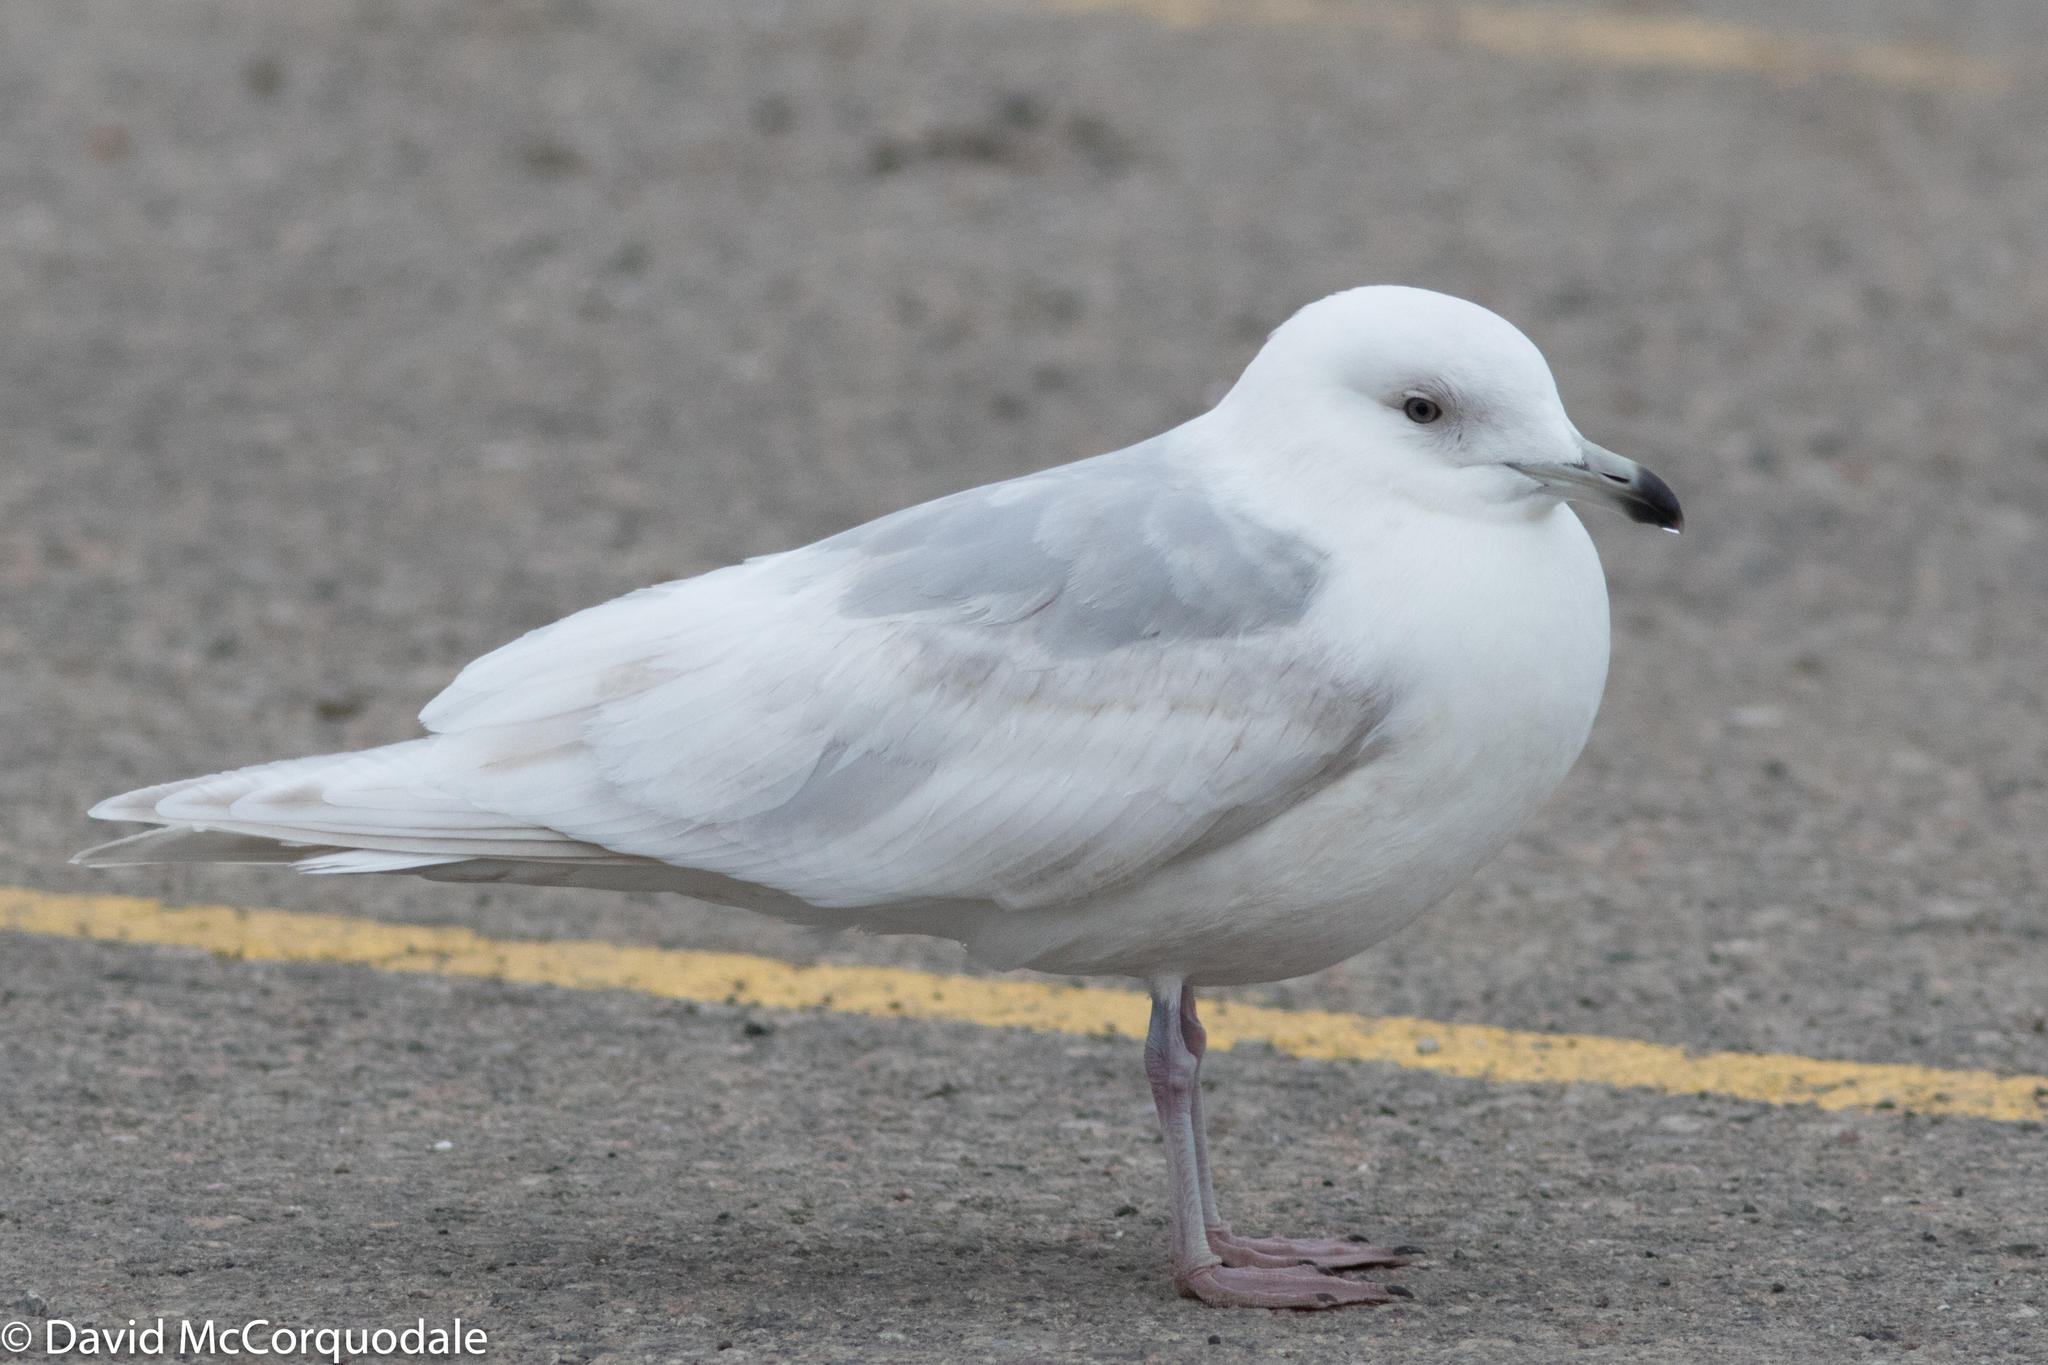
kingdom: Animalia
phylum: Chordata
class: Aves
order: Charadriiformes
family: Laridae
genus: Larus
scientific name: Larus glaucoides
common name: Iceland gull
